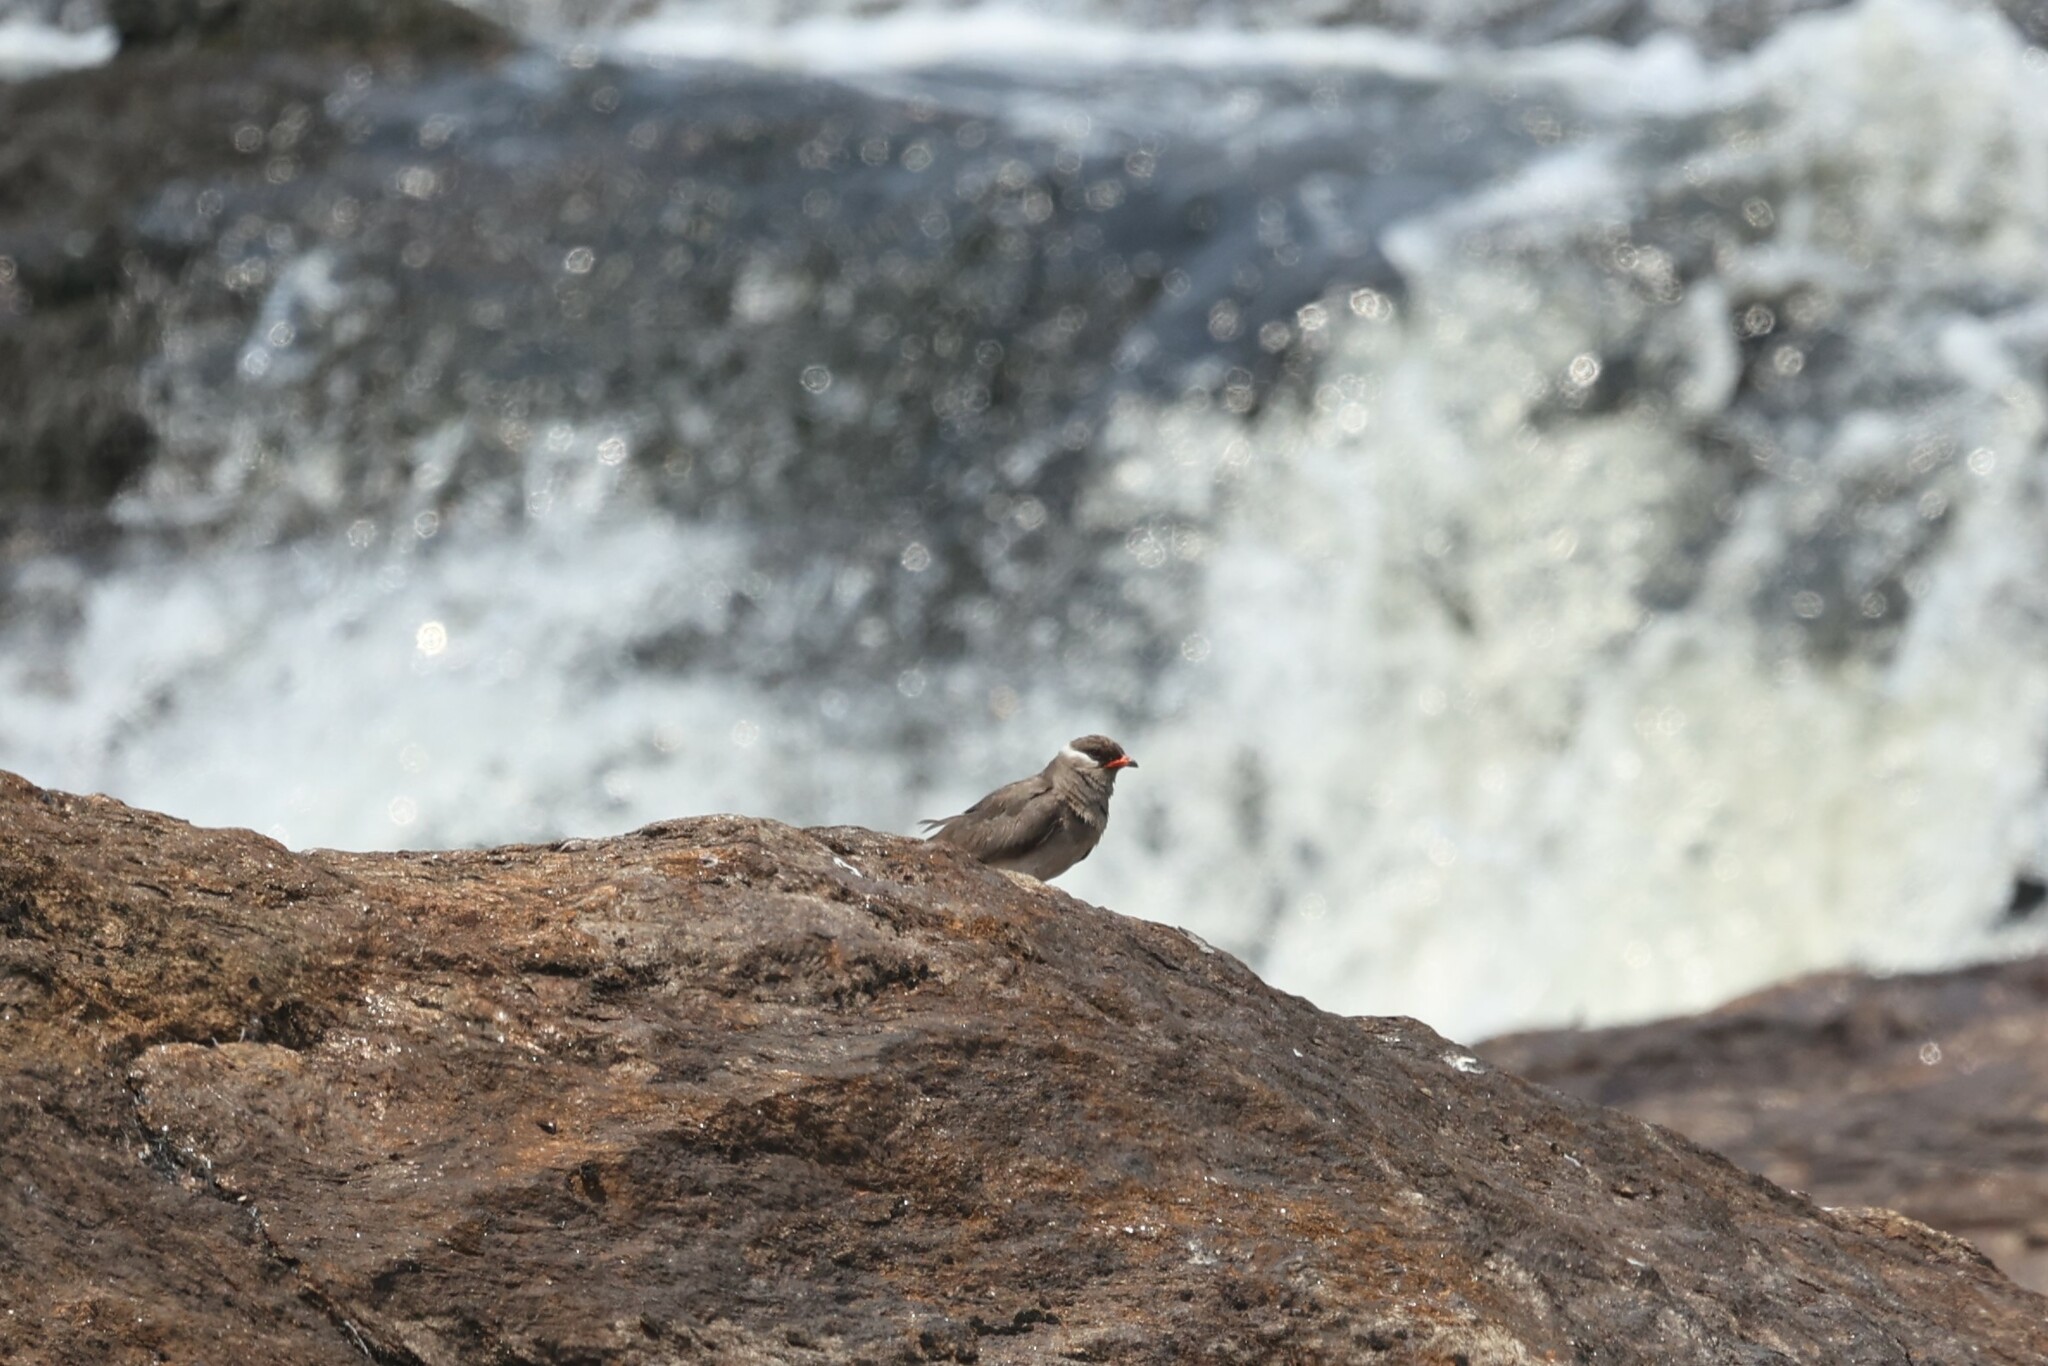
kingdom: Animalia
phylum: Chordata
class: Aves
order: Charadriiformes
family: Glareolidae
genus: Glareola
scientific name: Glareola nuchalis
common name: Rock pratincole
